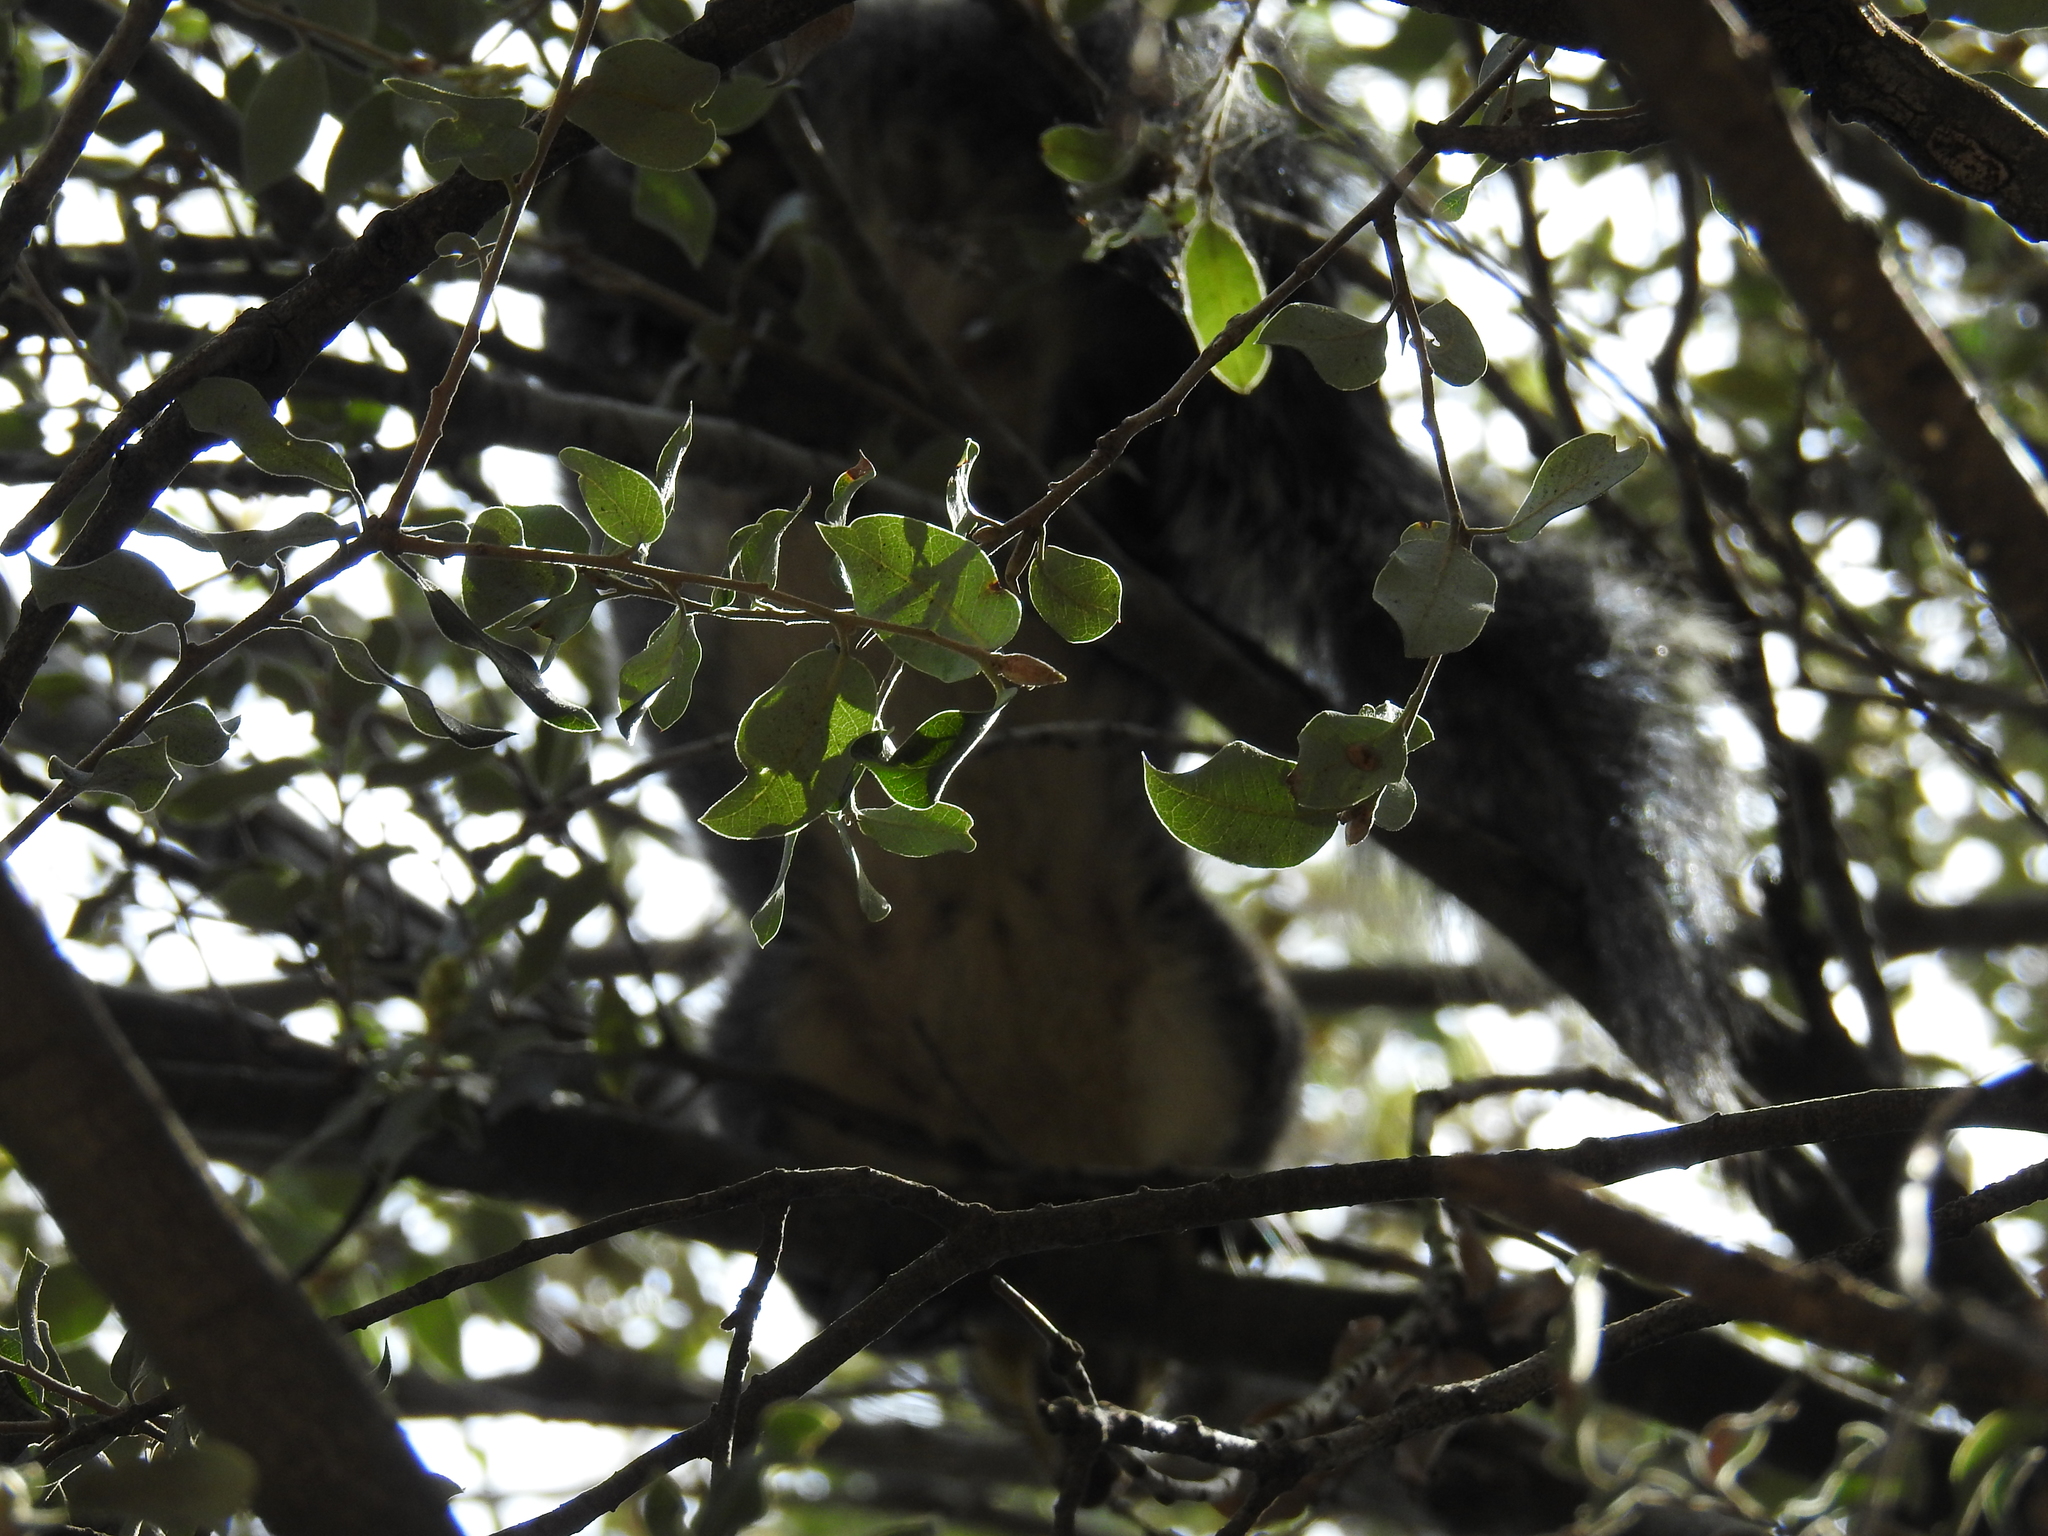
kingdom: Animalia
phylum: Chordata
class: Mammalia
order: Rodentia
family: Sciuridae
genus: Sciurus
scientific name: Sciurus griseus
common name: Western gray squirrel
